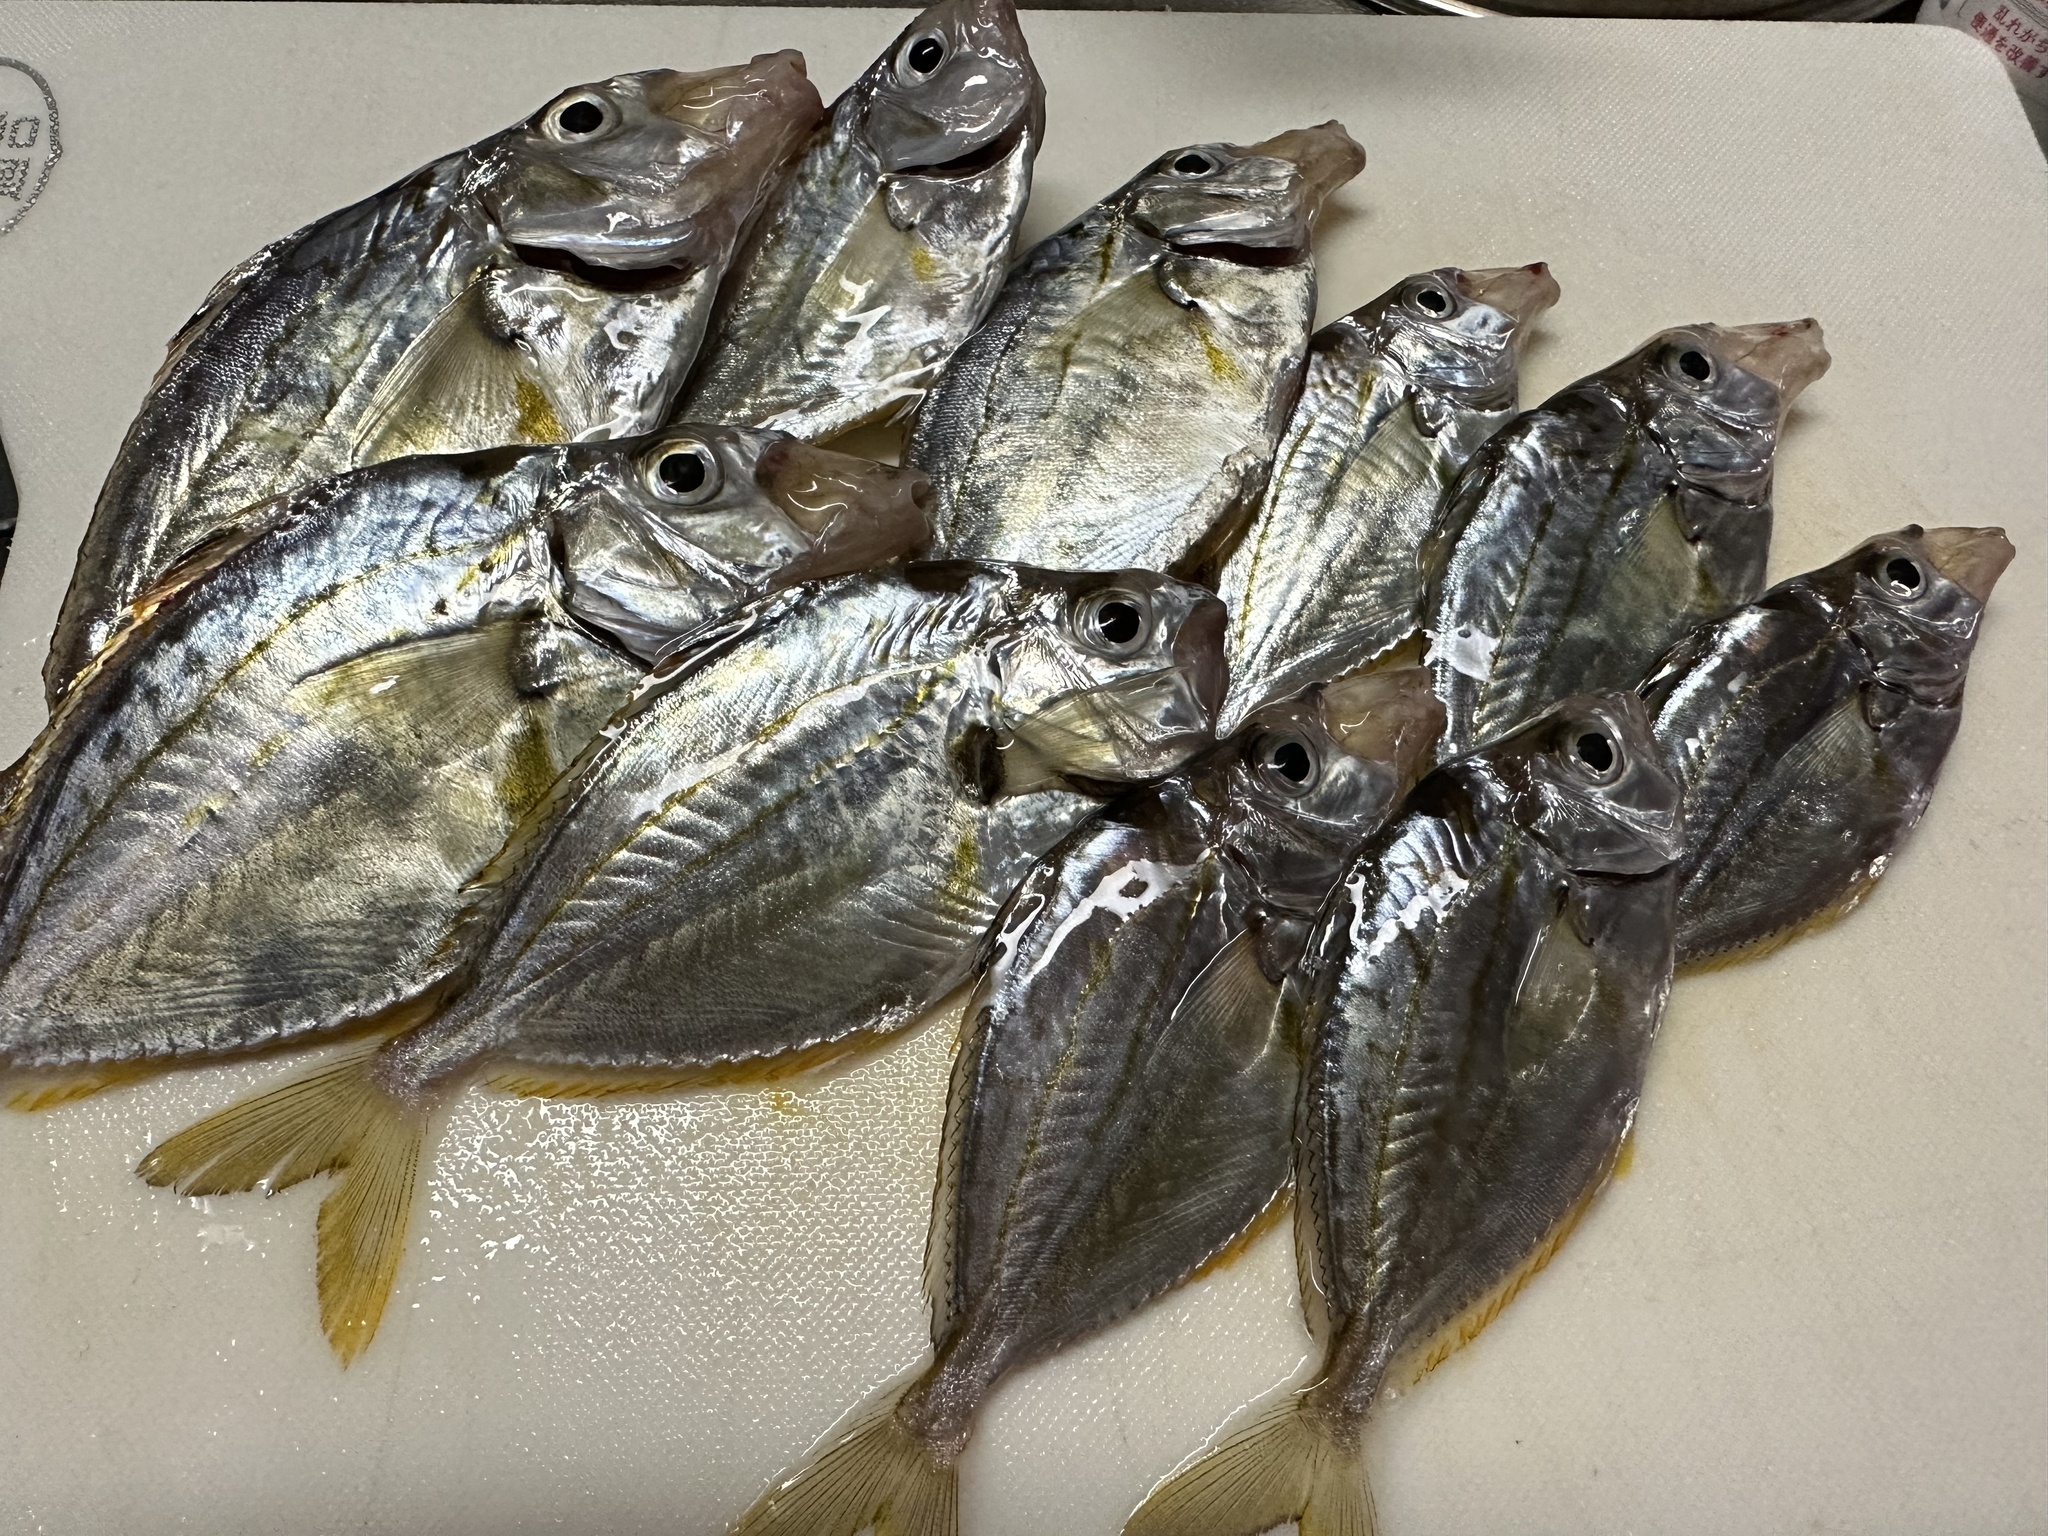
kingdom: Animalia
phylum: Chordata
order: Perciformes
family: Leiognathidae
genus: Nuchequula
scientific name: Nuchequula nuchalis
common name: Spotnape ponyfish
